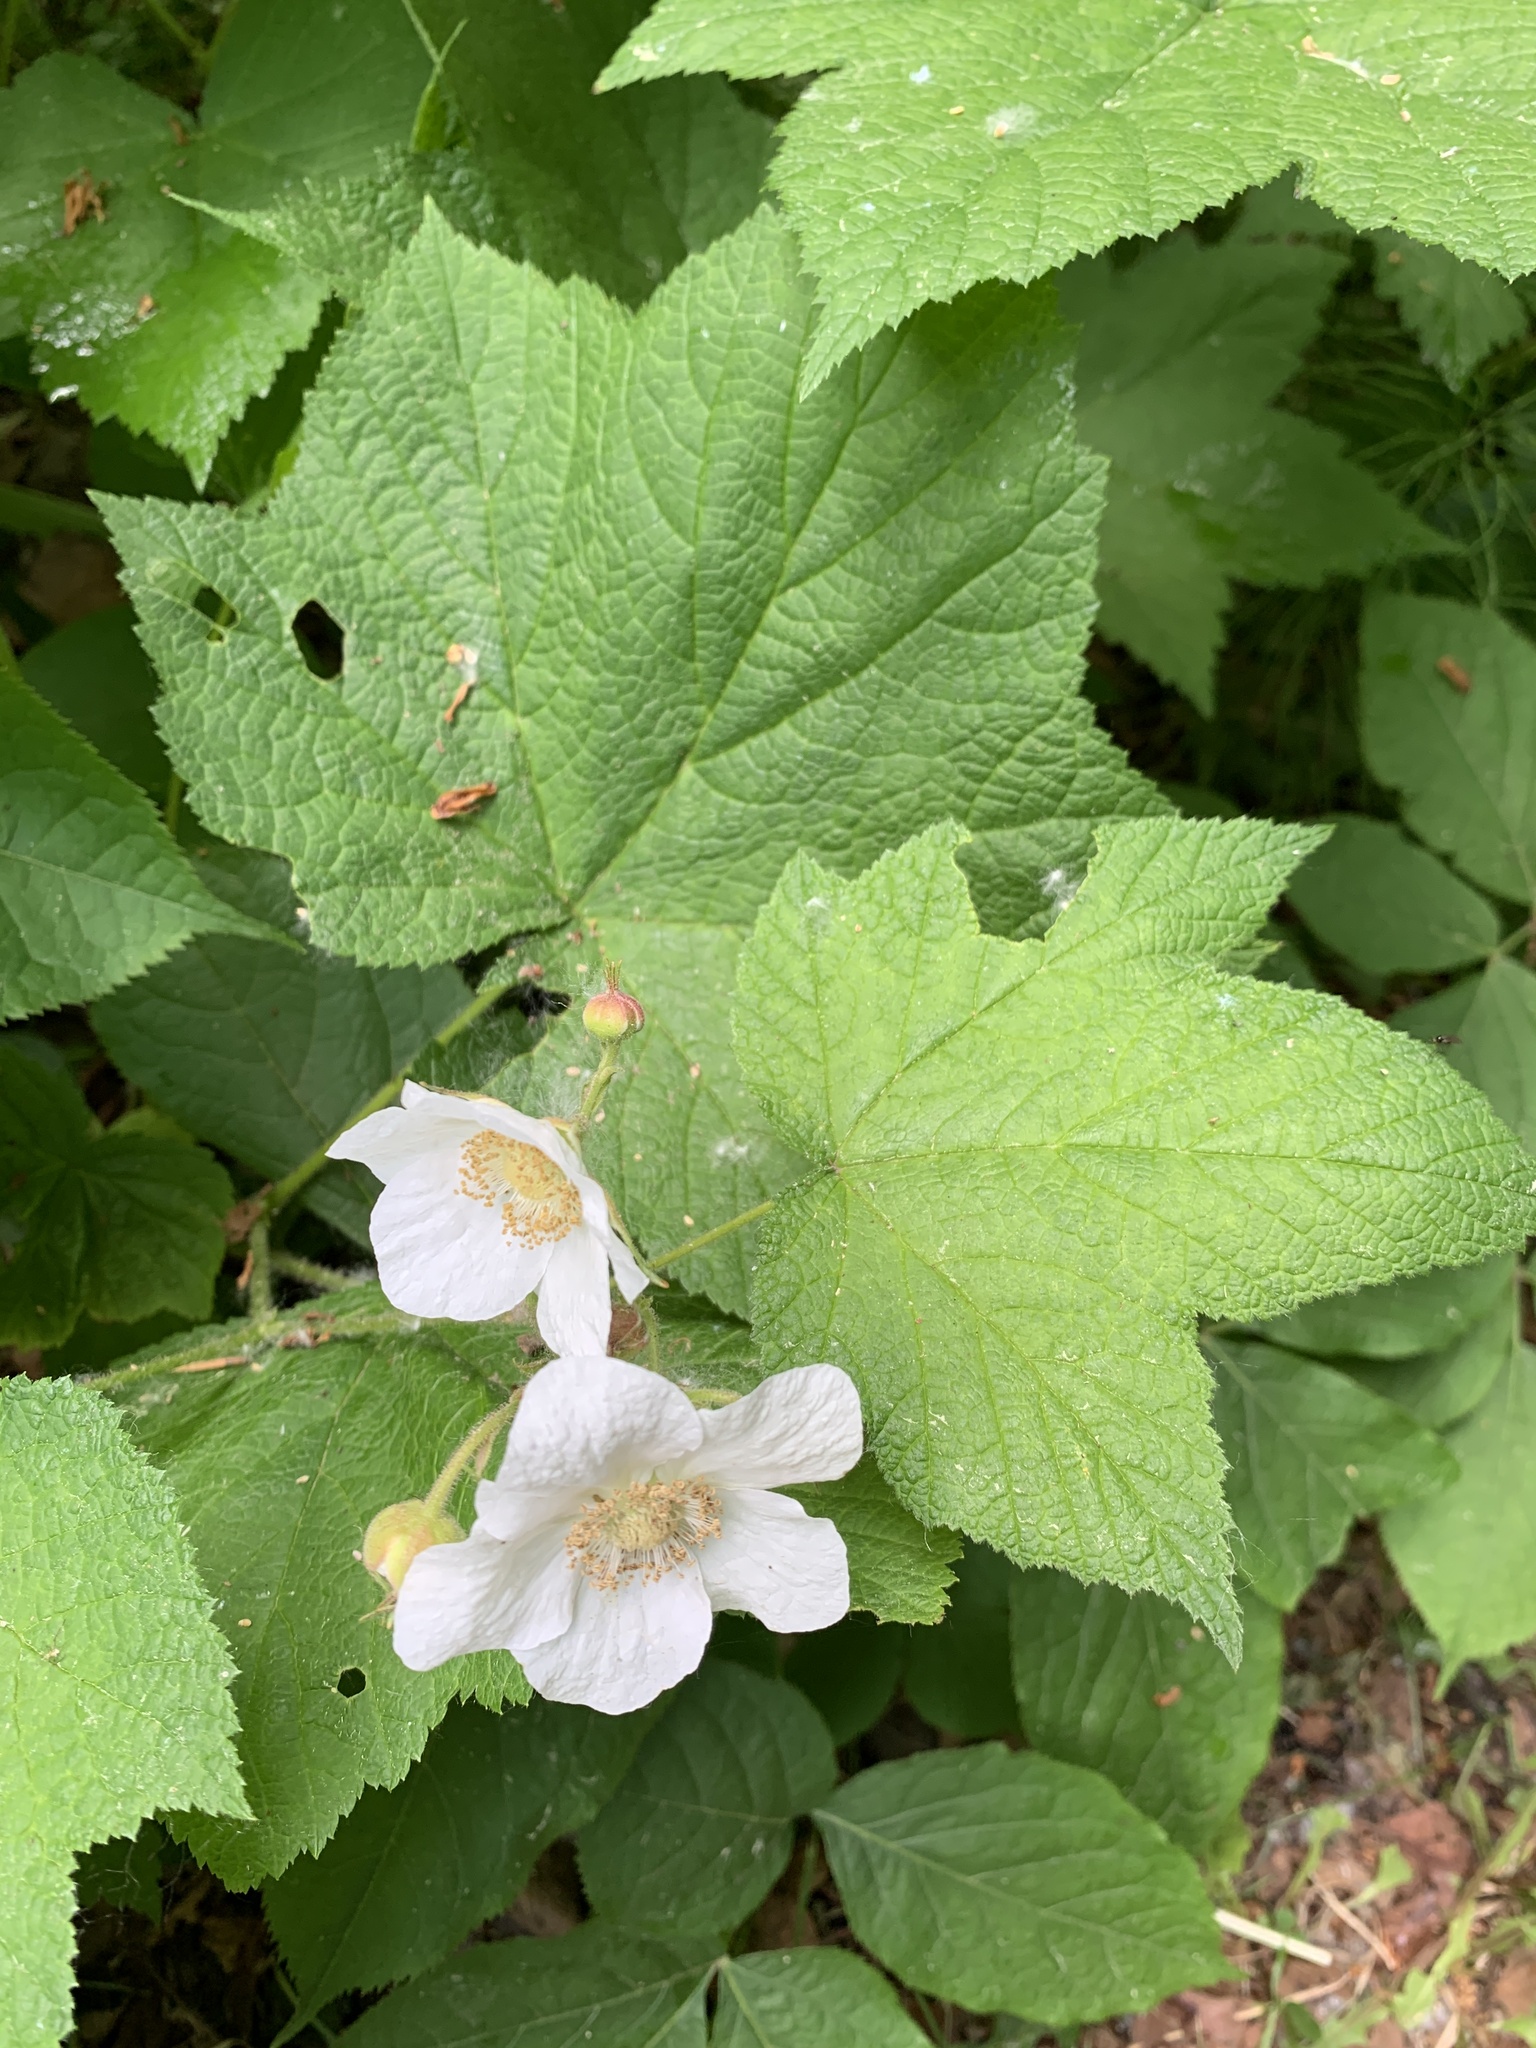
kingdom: Plantae
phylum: Tracheophyta
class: Magnoliopsida
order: Rosales
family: Rosaceae
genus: Rubus
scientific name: Rubus parviflorus
